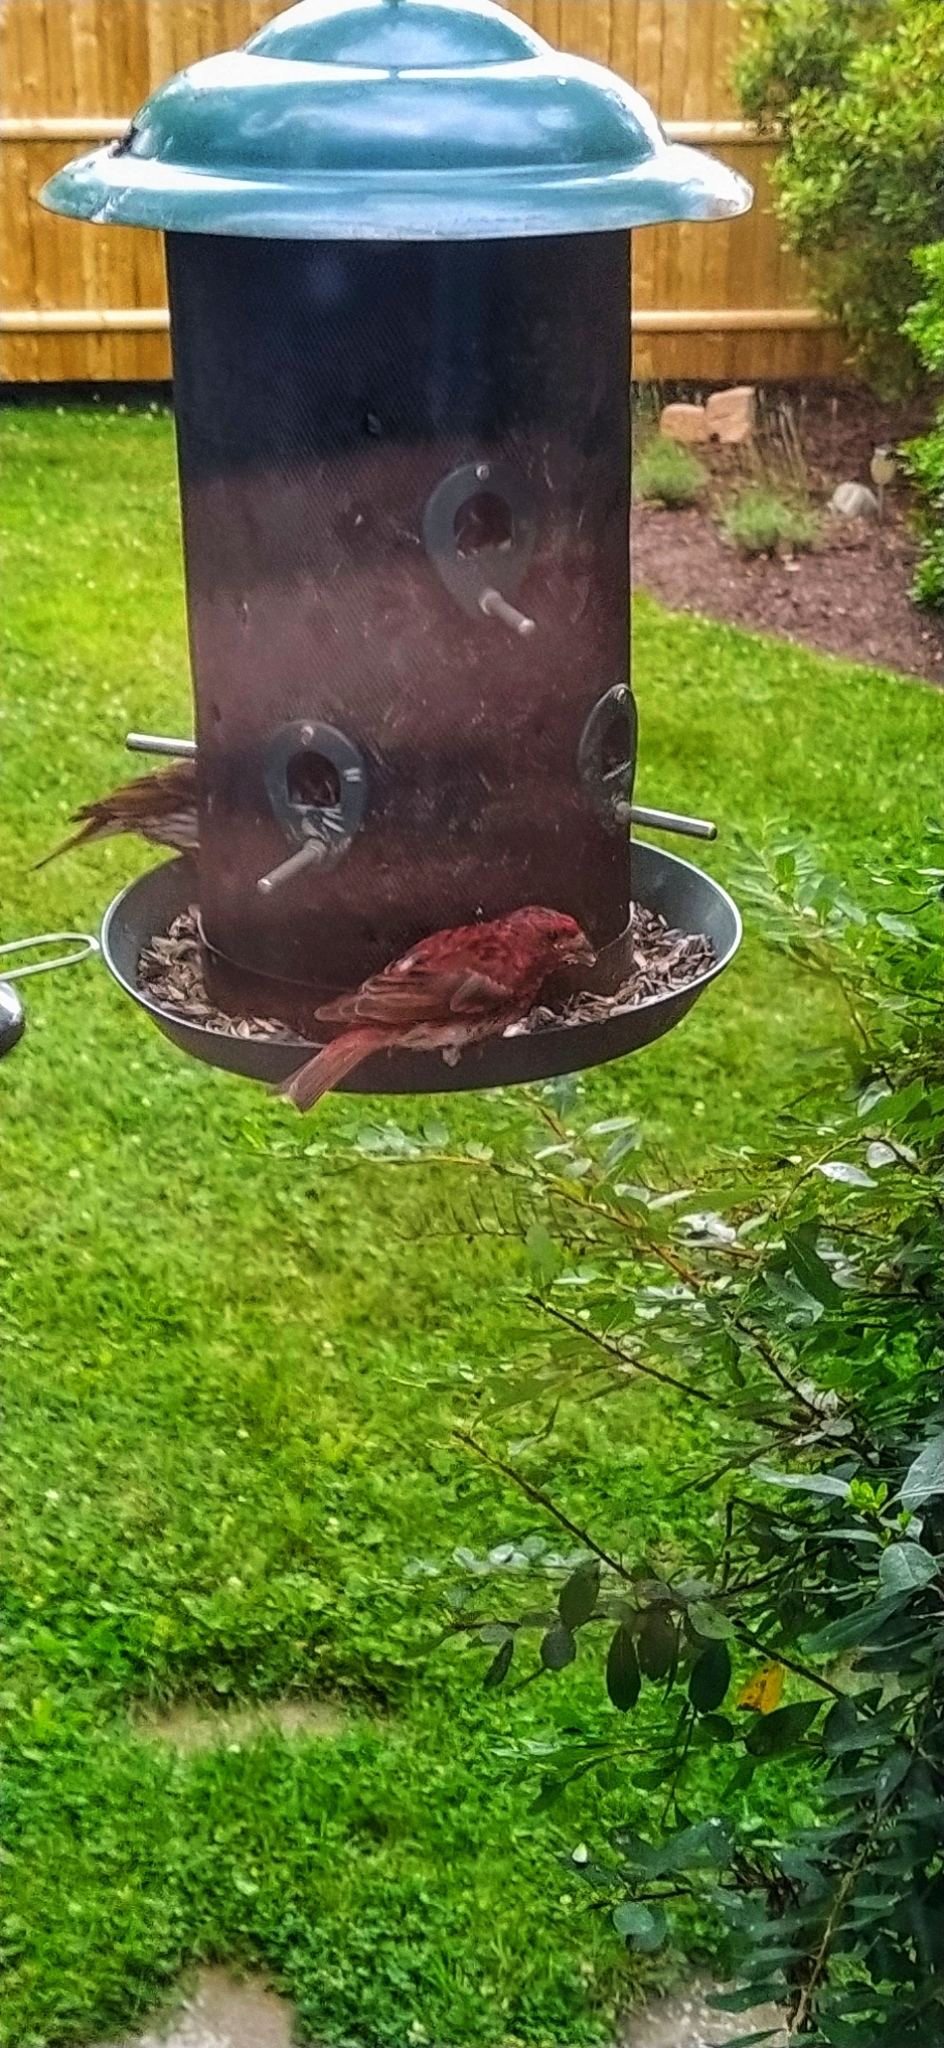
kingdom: Animalia
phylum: Chordata
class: Aves
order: Passeriformes
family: Fringillidae
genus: Haemorhous
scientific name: Haemorhous purpureus
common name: Purple finch
